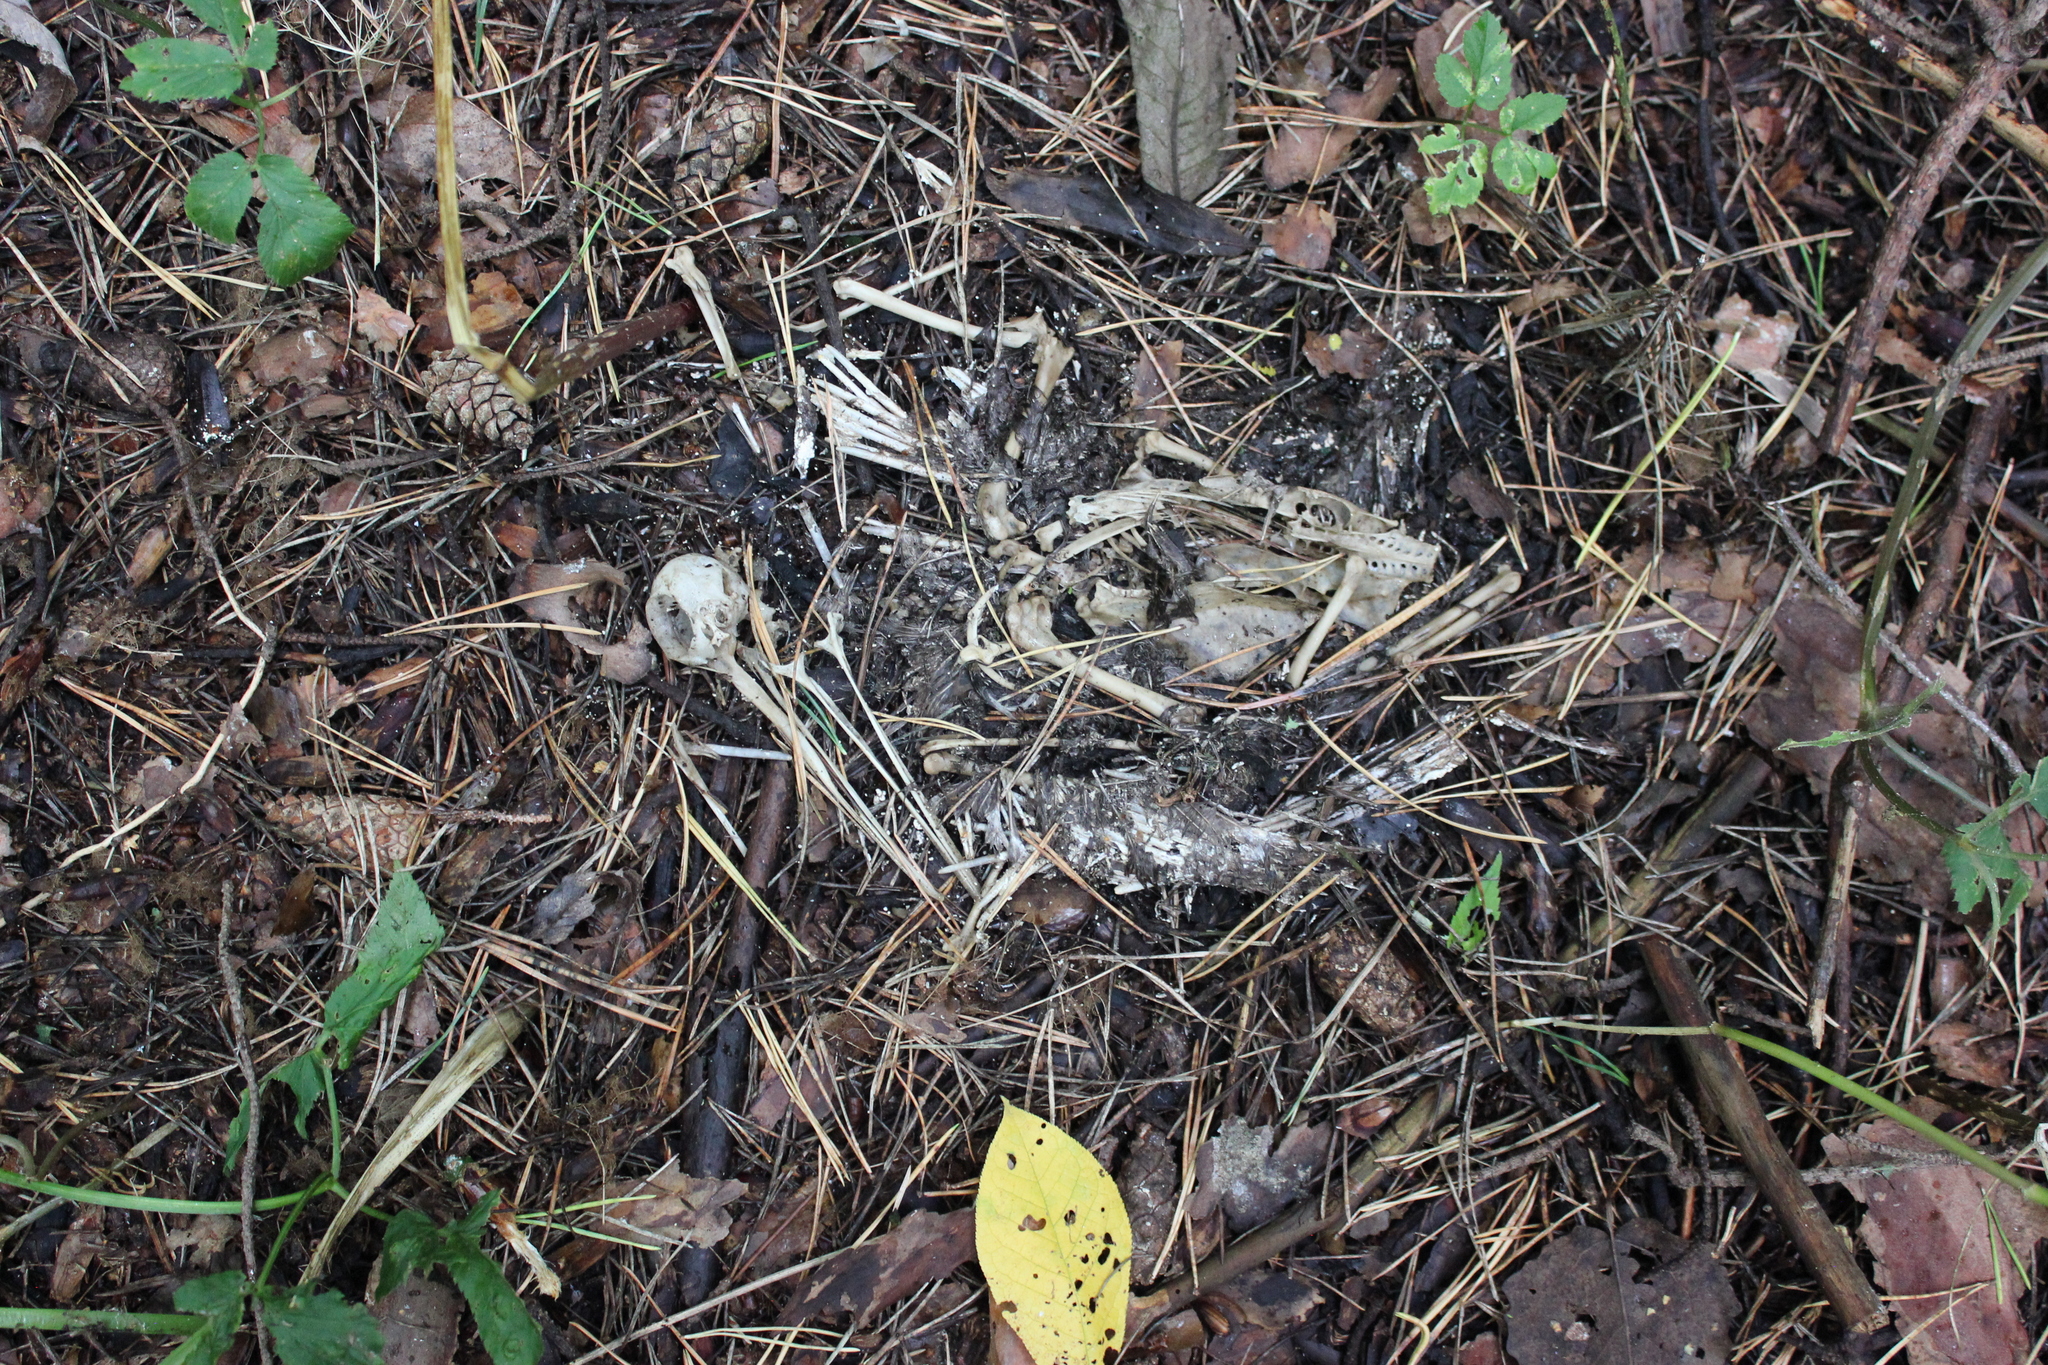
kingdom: Animalia
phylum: Chordata
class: Aves
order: Charadriiformes
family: Scolopacidae
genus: Scolopax
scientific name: Scolopax rusticola
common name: Eurasian woodcock
